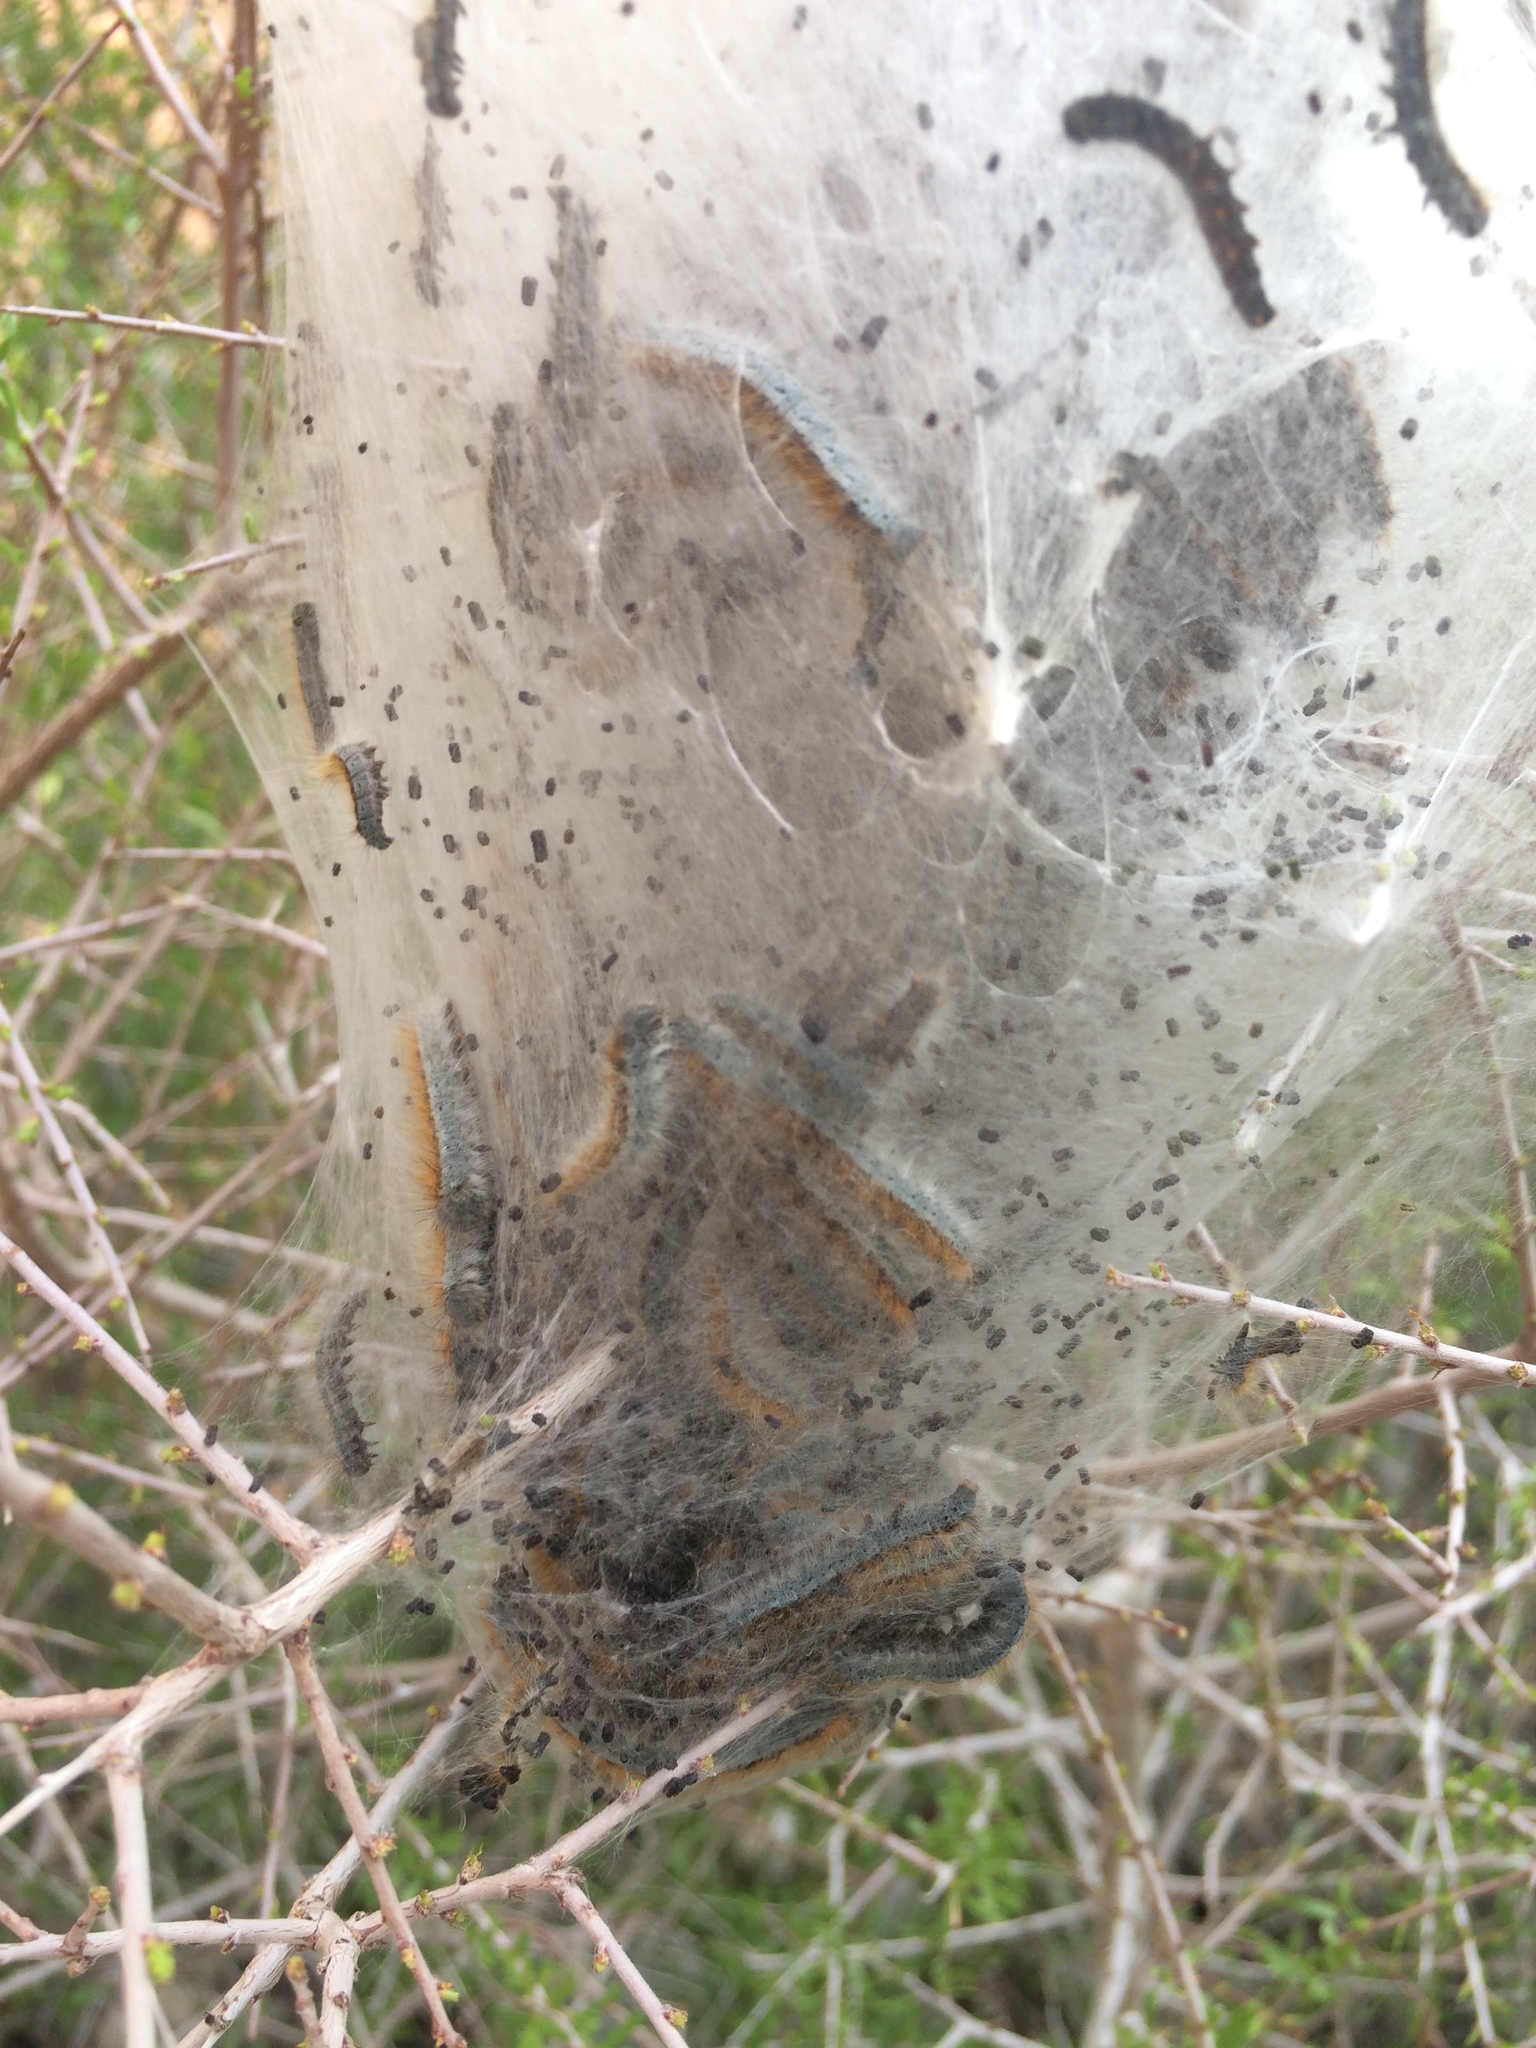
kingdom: Animalia
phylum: Arthropoda
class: Insecta
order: Lepidoptera
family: Lasiocampidae
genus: Malacosoma
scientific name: Malacosoma incurva
